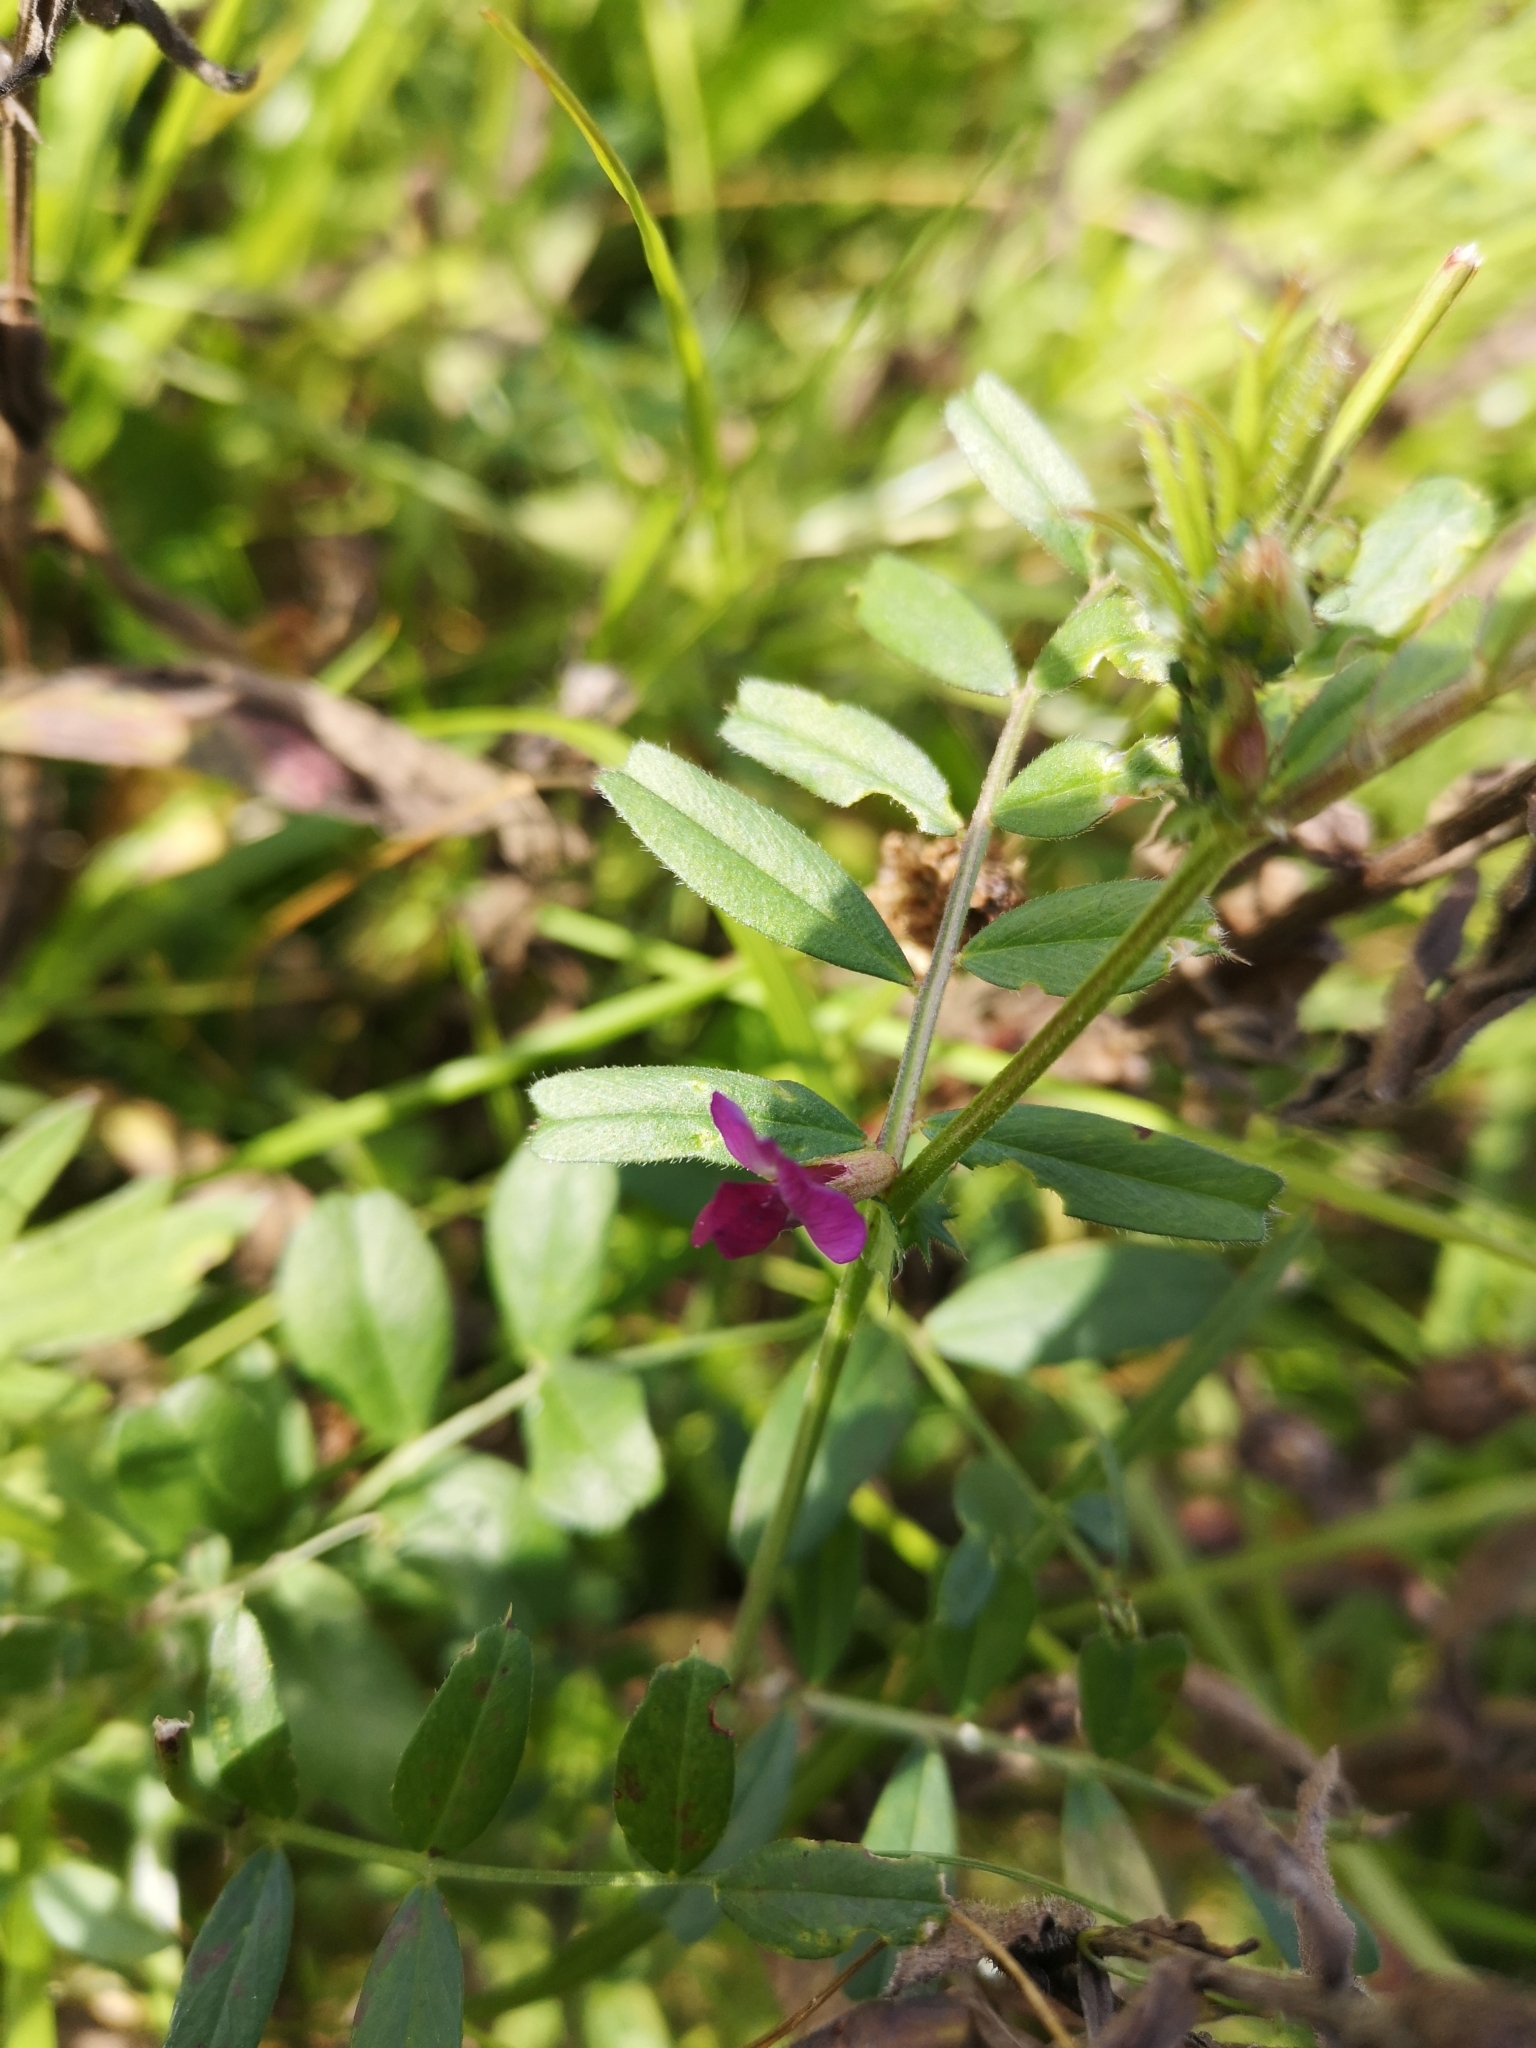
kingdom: Plantae
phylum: Tracheophyta
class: Magnoliopsida
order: Fabales
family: Fabaceae
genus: Vicia
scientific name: Vicia sativa
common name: Garden vetch
